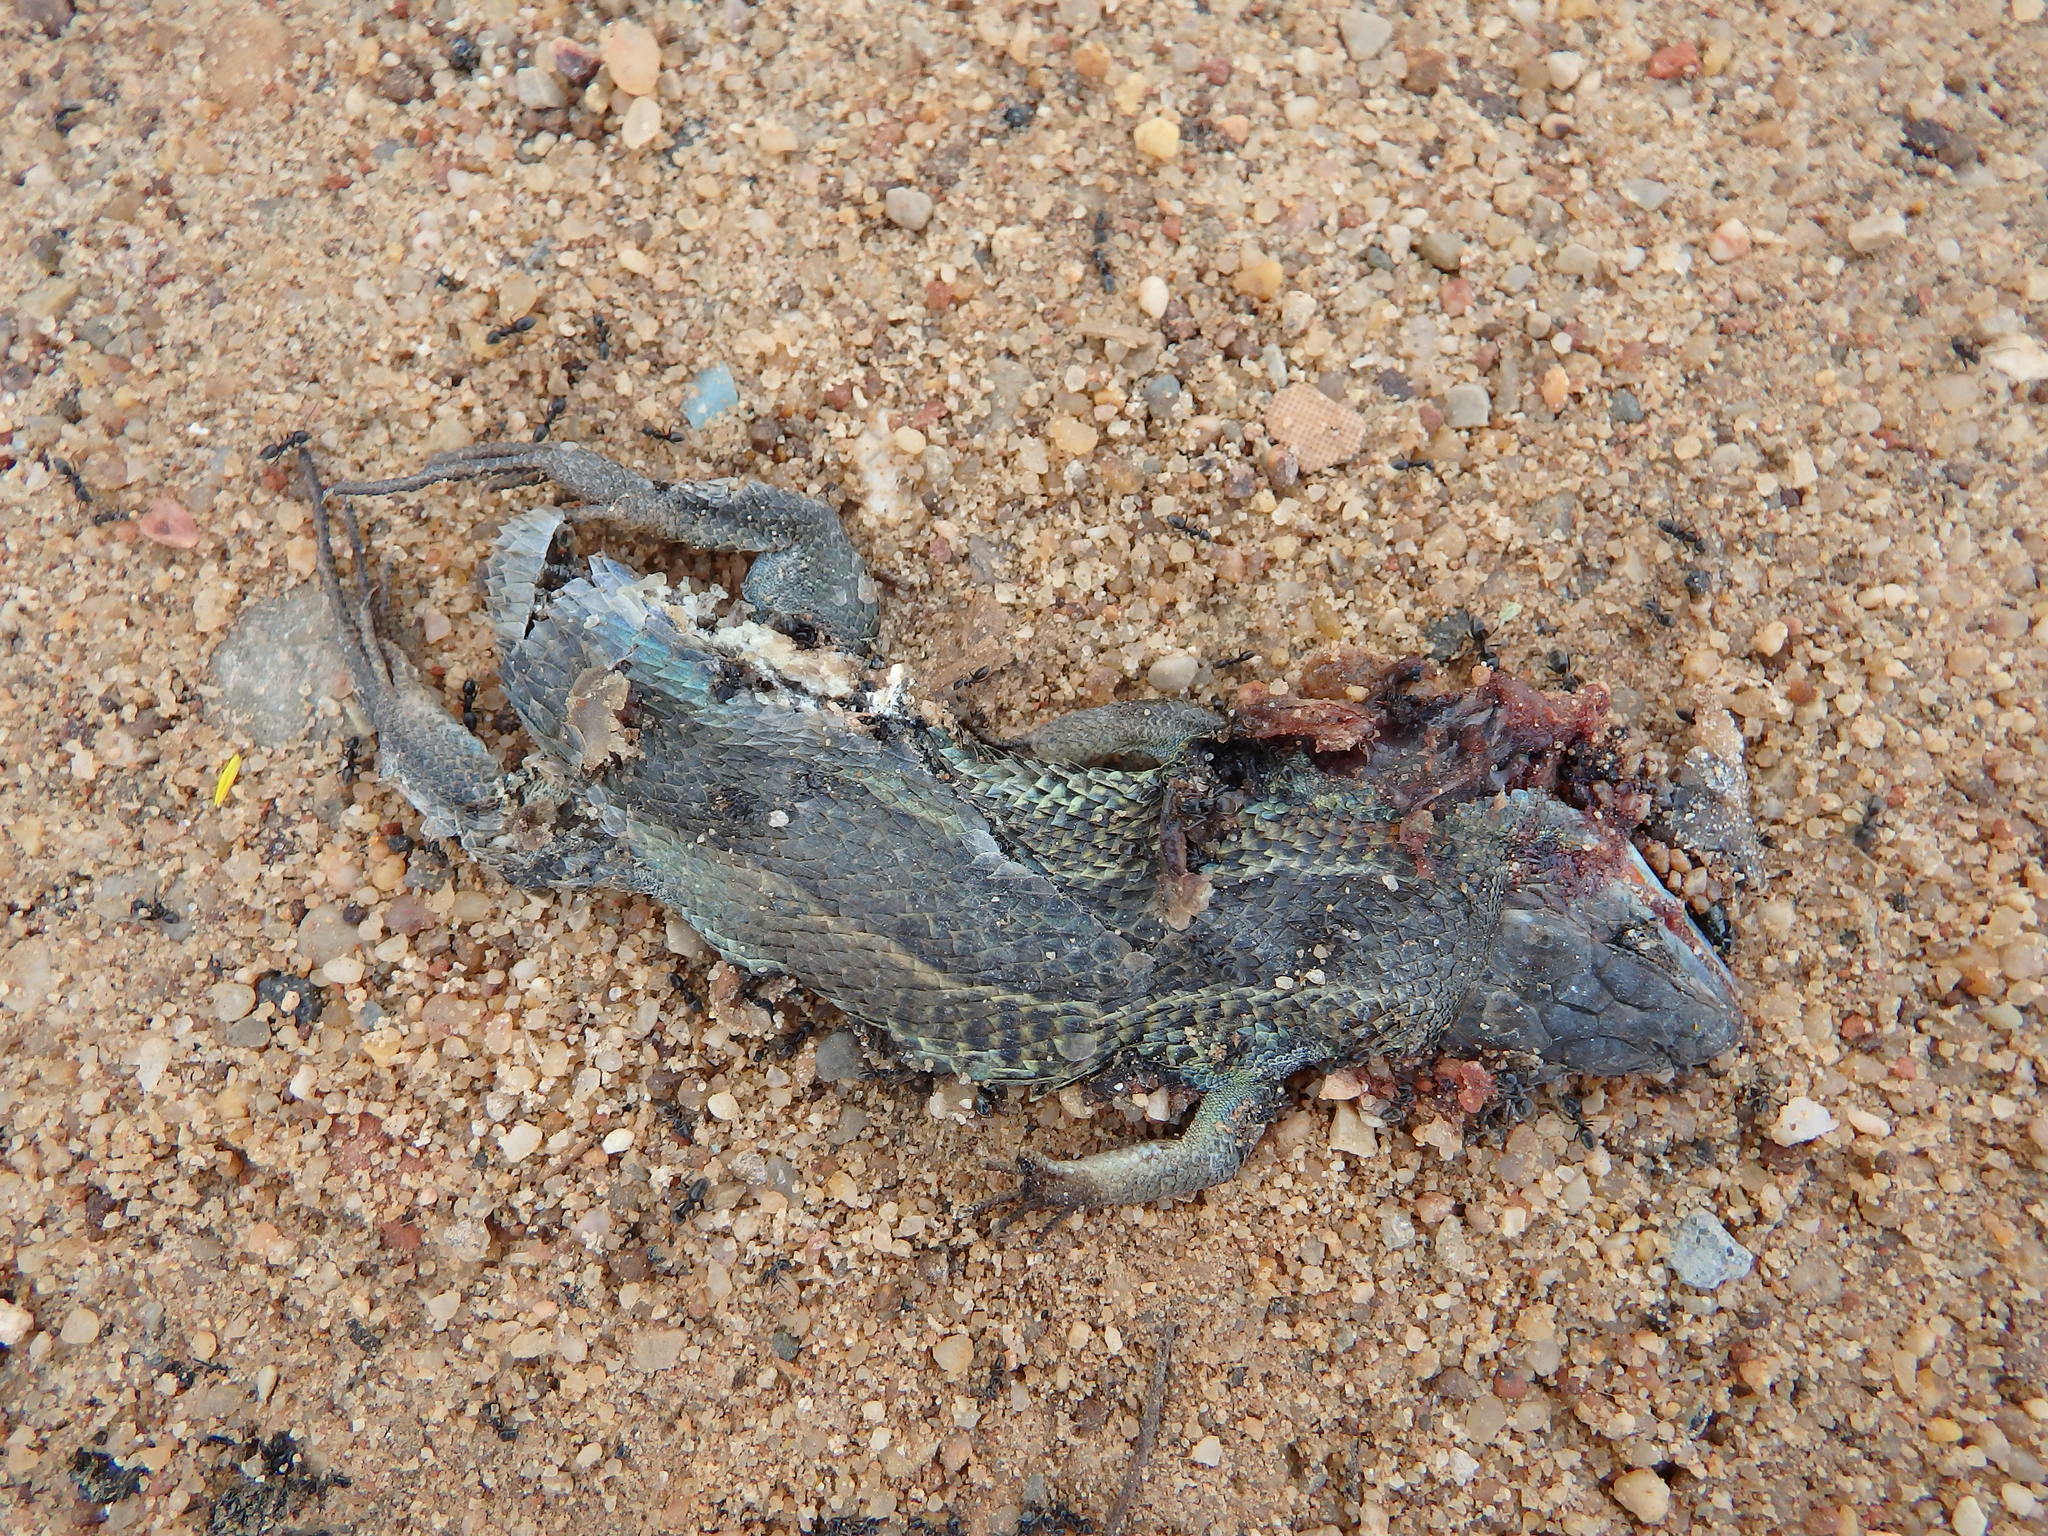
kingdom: Animalia
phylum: Chordata
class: Squamata
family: Lacertidae
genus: Psammodromus
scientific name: Psammodromus algirus
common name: Algerian psammodromus
